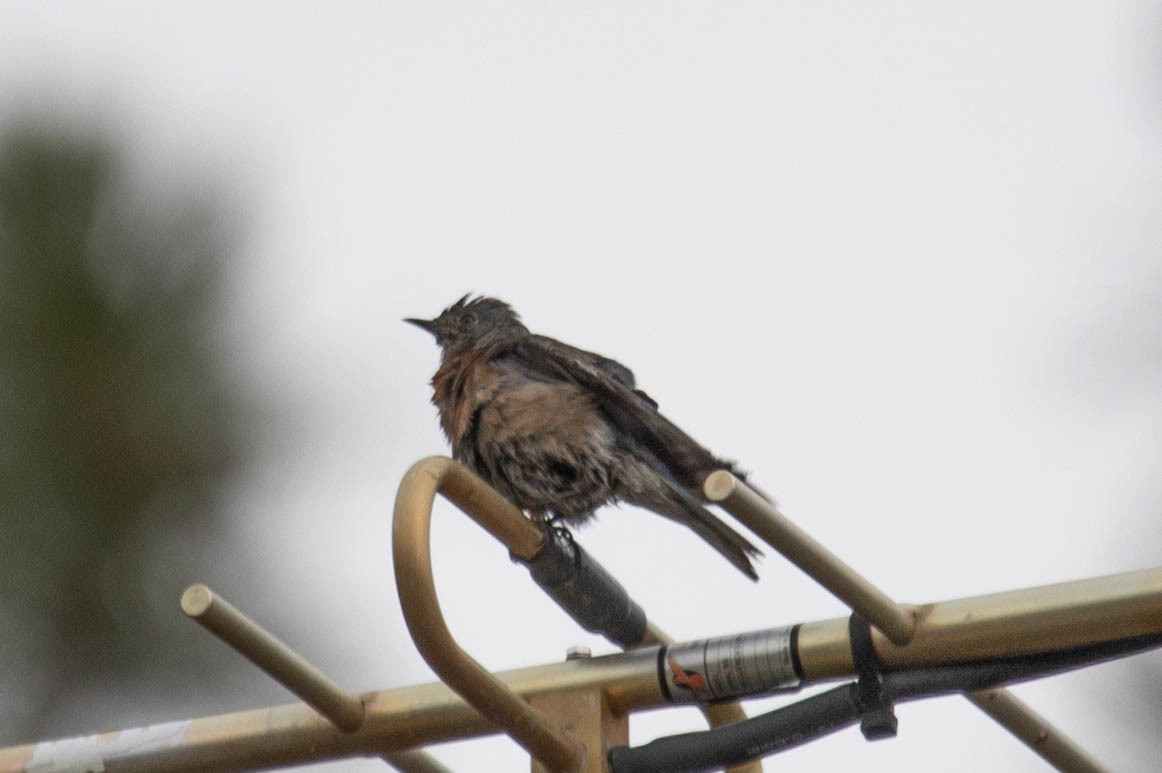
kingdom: Animalia
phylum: Chordata
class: Aves
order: Passeriformes
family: Turdidae
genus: Sialia
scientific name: Sialia currucoides
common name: Mountain bluebird
